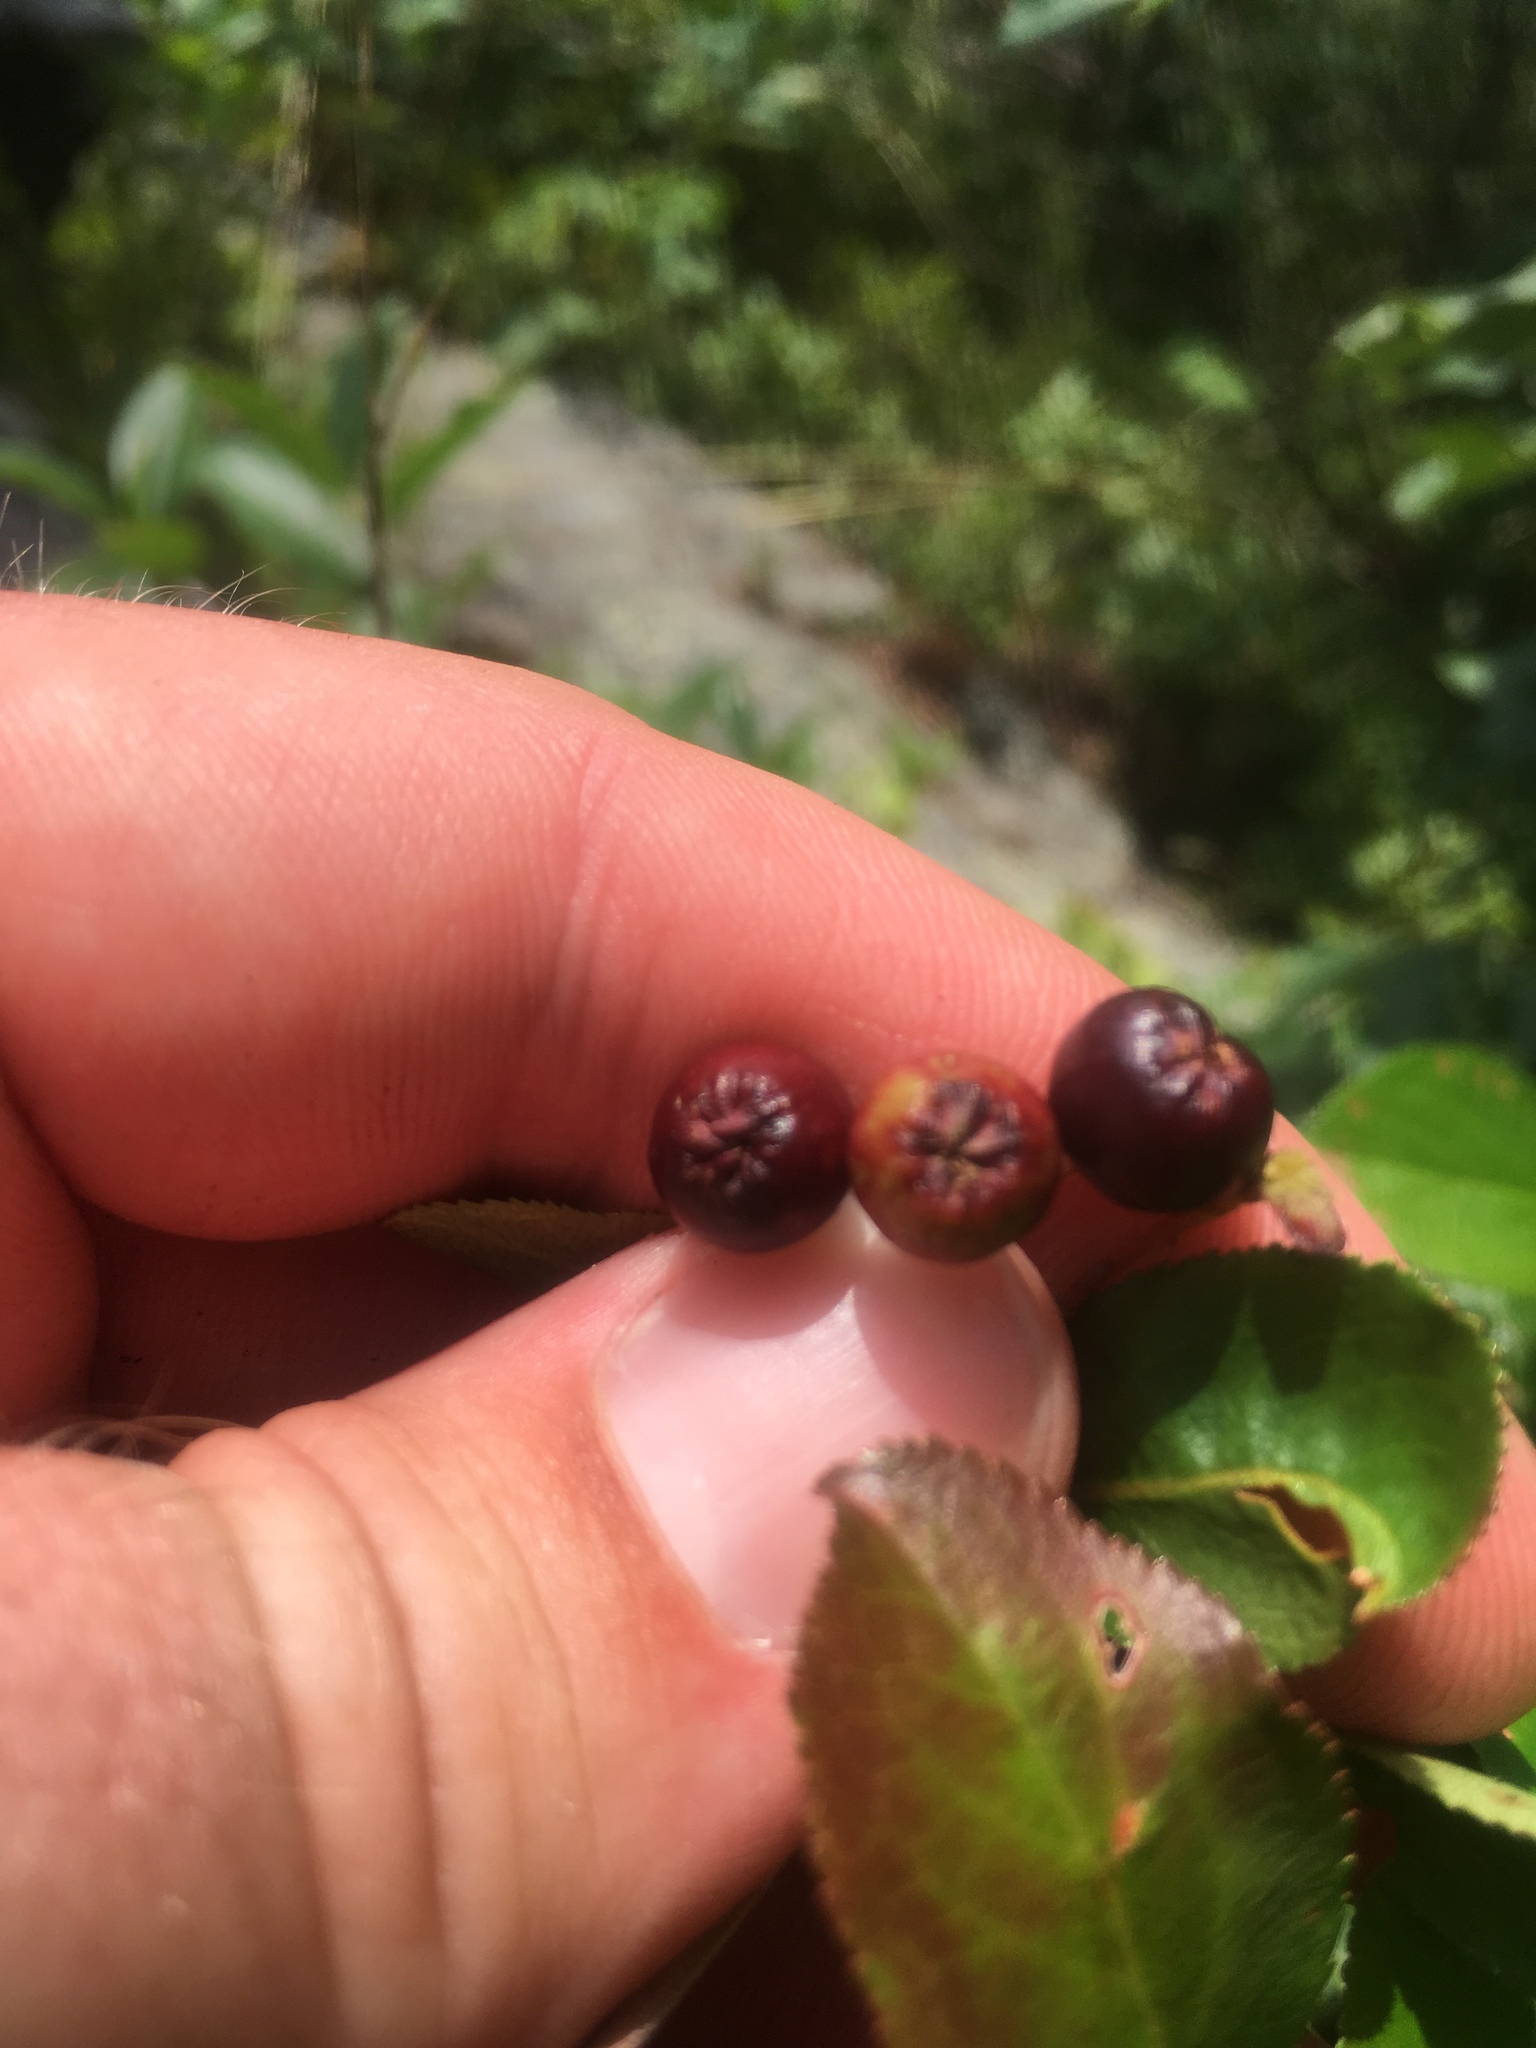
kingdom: Plantae
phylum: Tracheophyta
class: Magnoliopsida
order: Rosales
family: Rosaceae
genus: Aronia
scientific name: Aronia melanocarpa
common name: Black chokeberry
